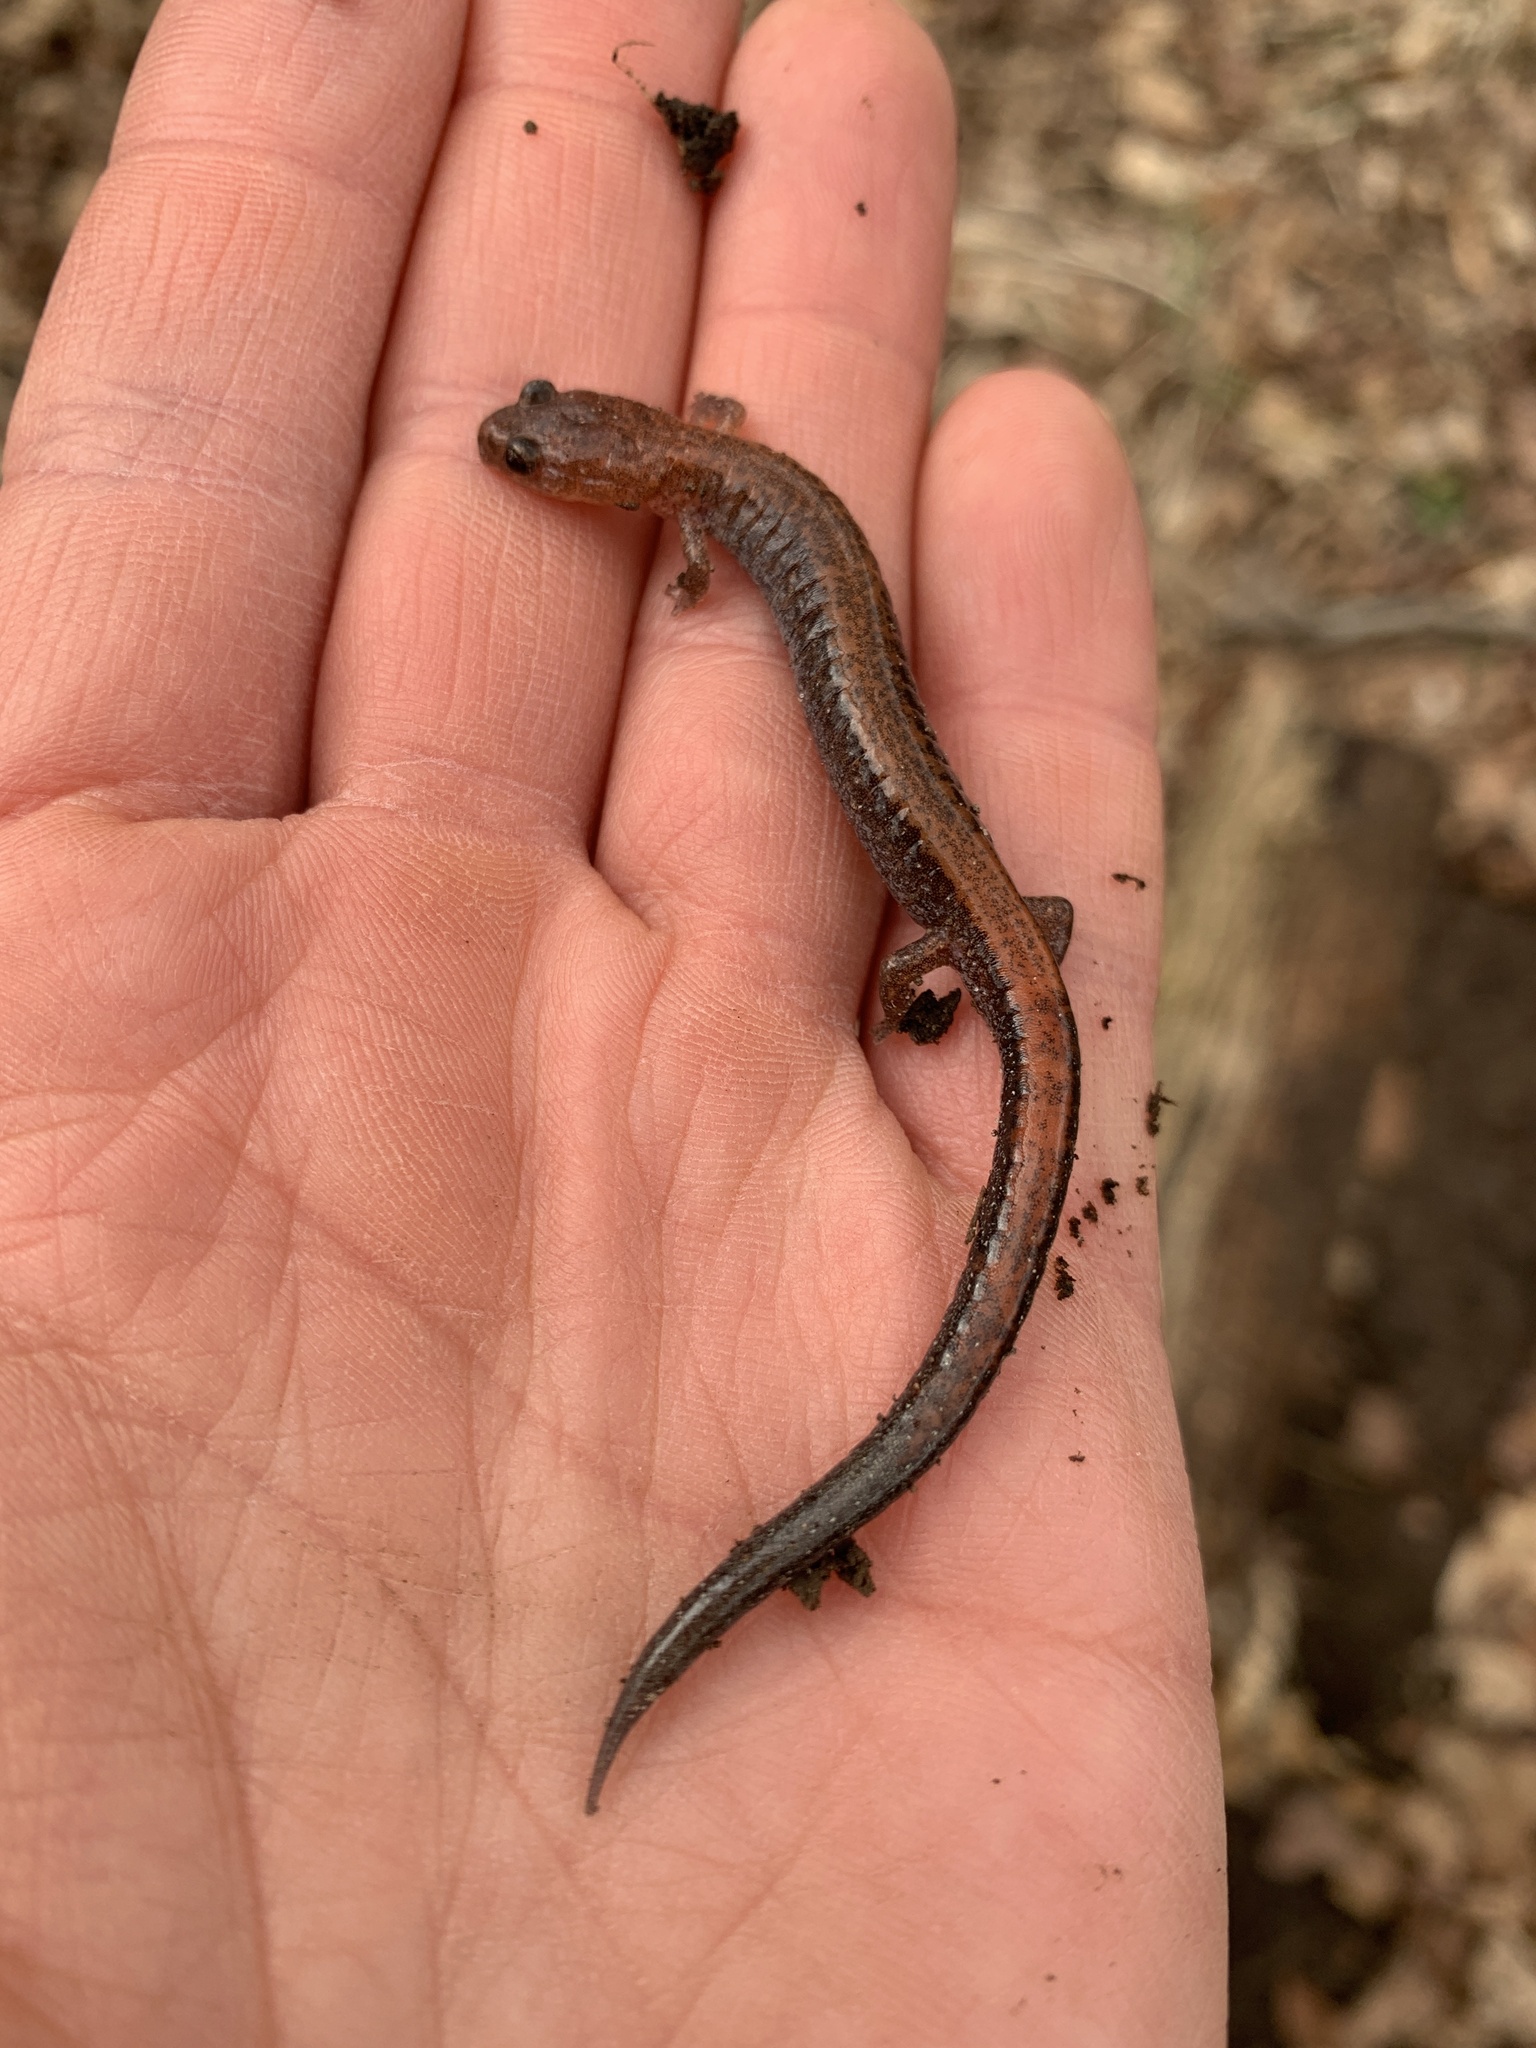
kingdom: Animalia
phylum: Chordata
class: Amphibia
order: Caudata
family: Plethodontidae
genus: Plethodon
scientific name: Plethodon cinereus
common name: Redback salamander
